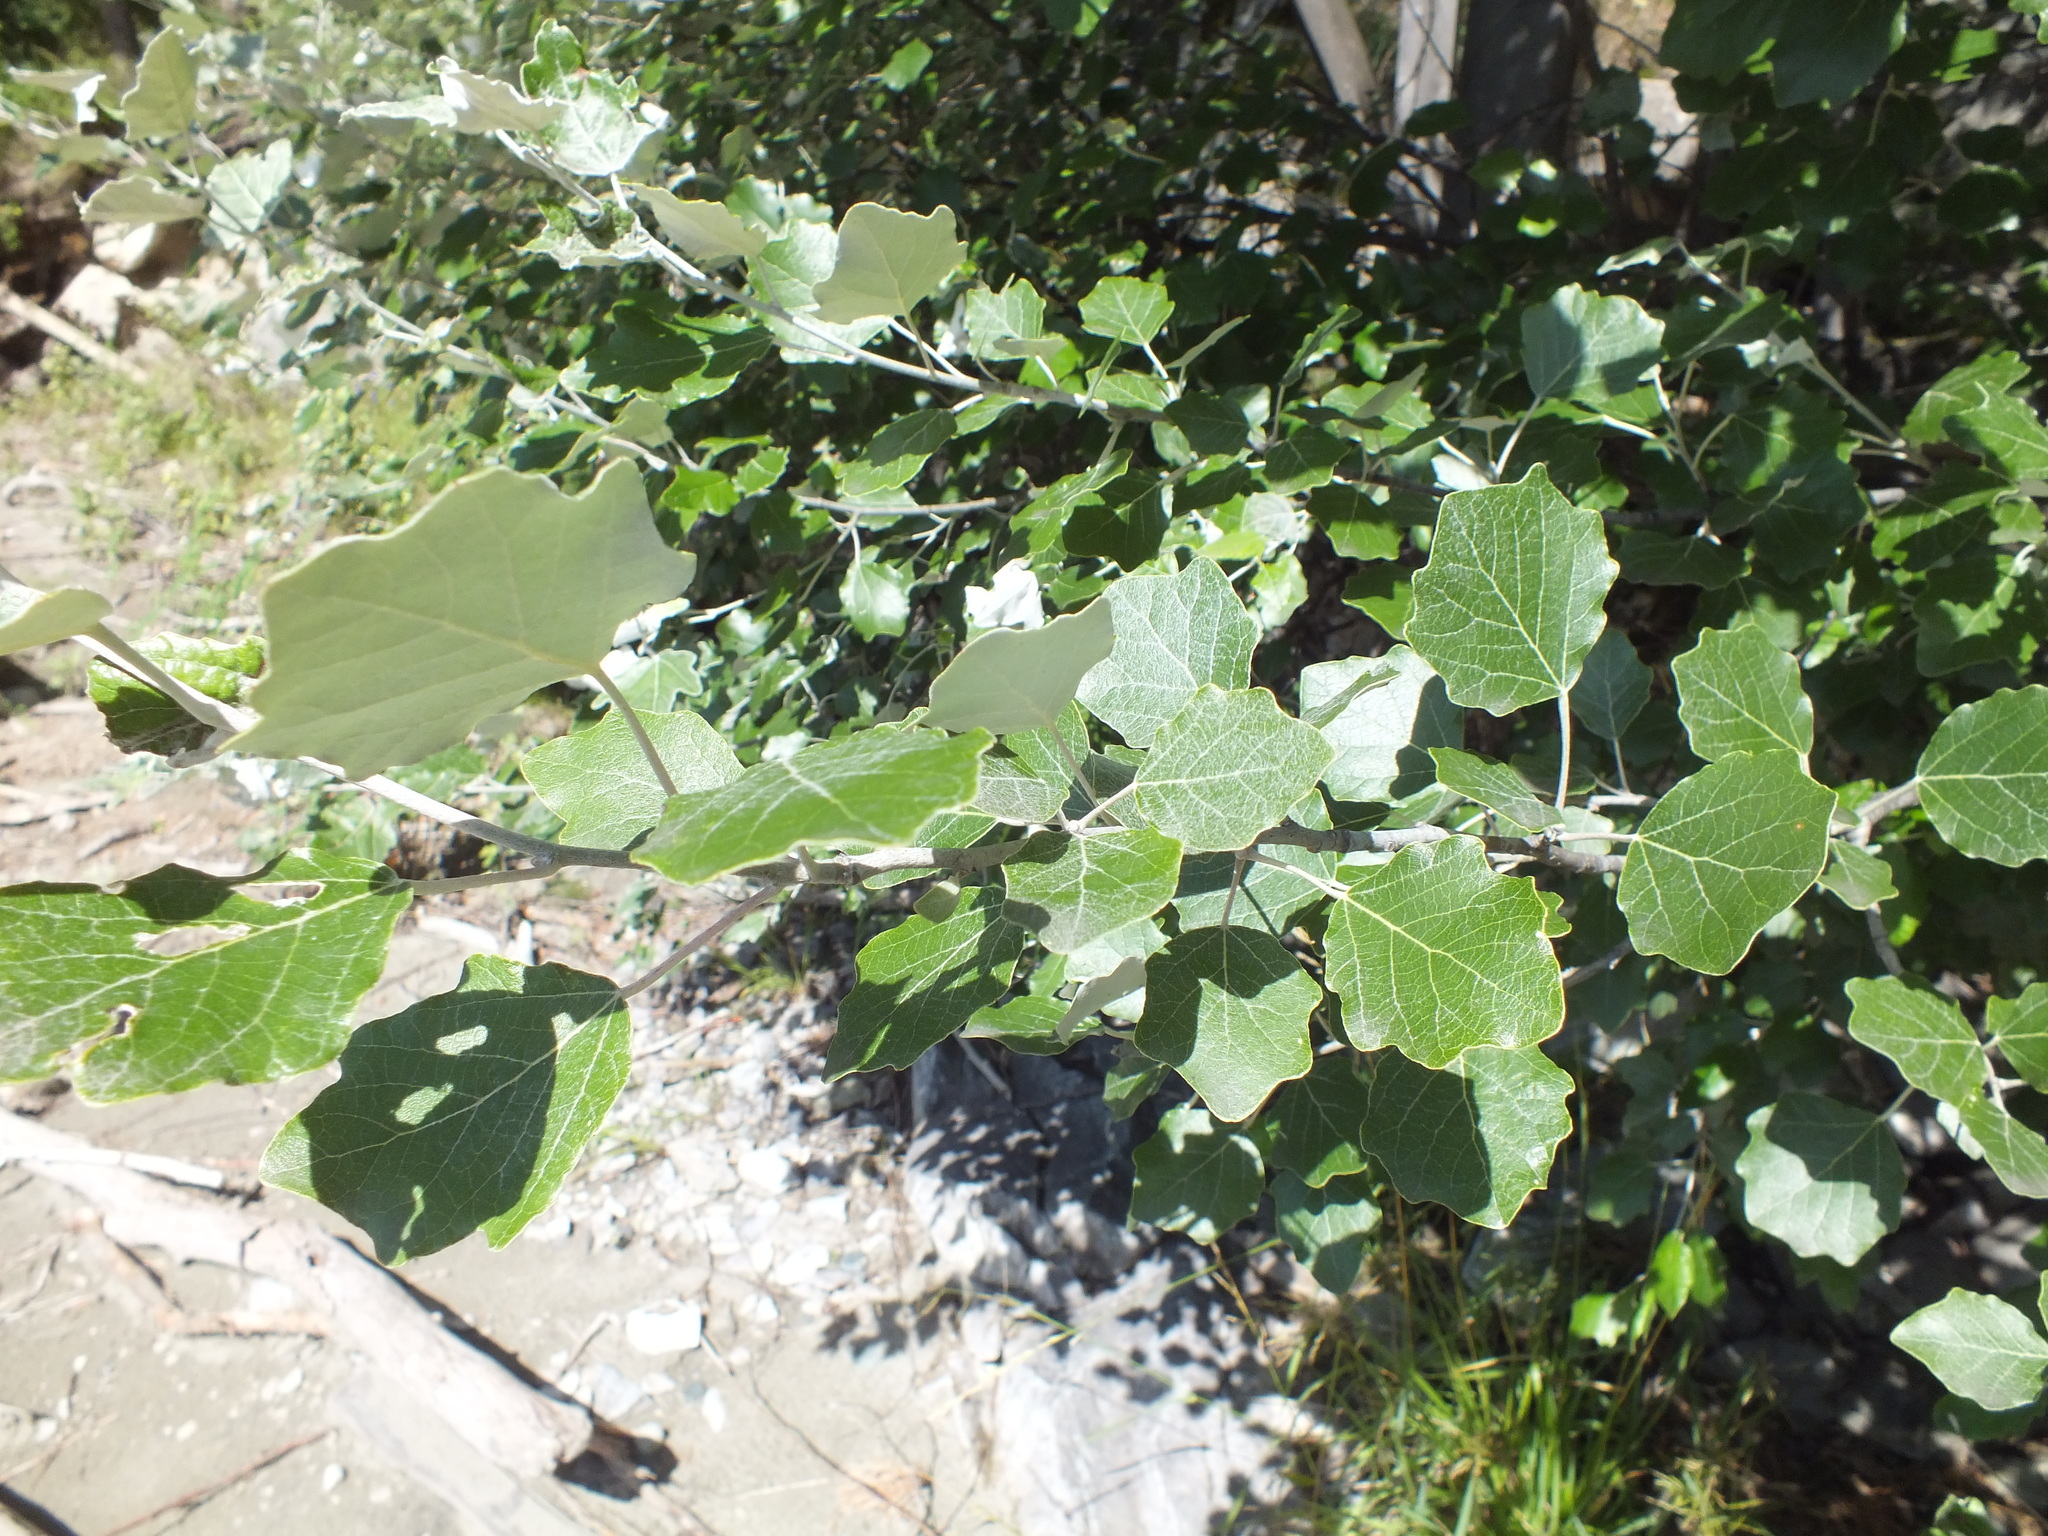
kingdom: Plantae
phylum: Tracheophyta
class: Magnoliopsida
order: Malpighiales
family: Salicaceae
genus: Populus
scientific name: Populus alba
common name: White poplar
